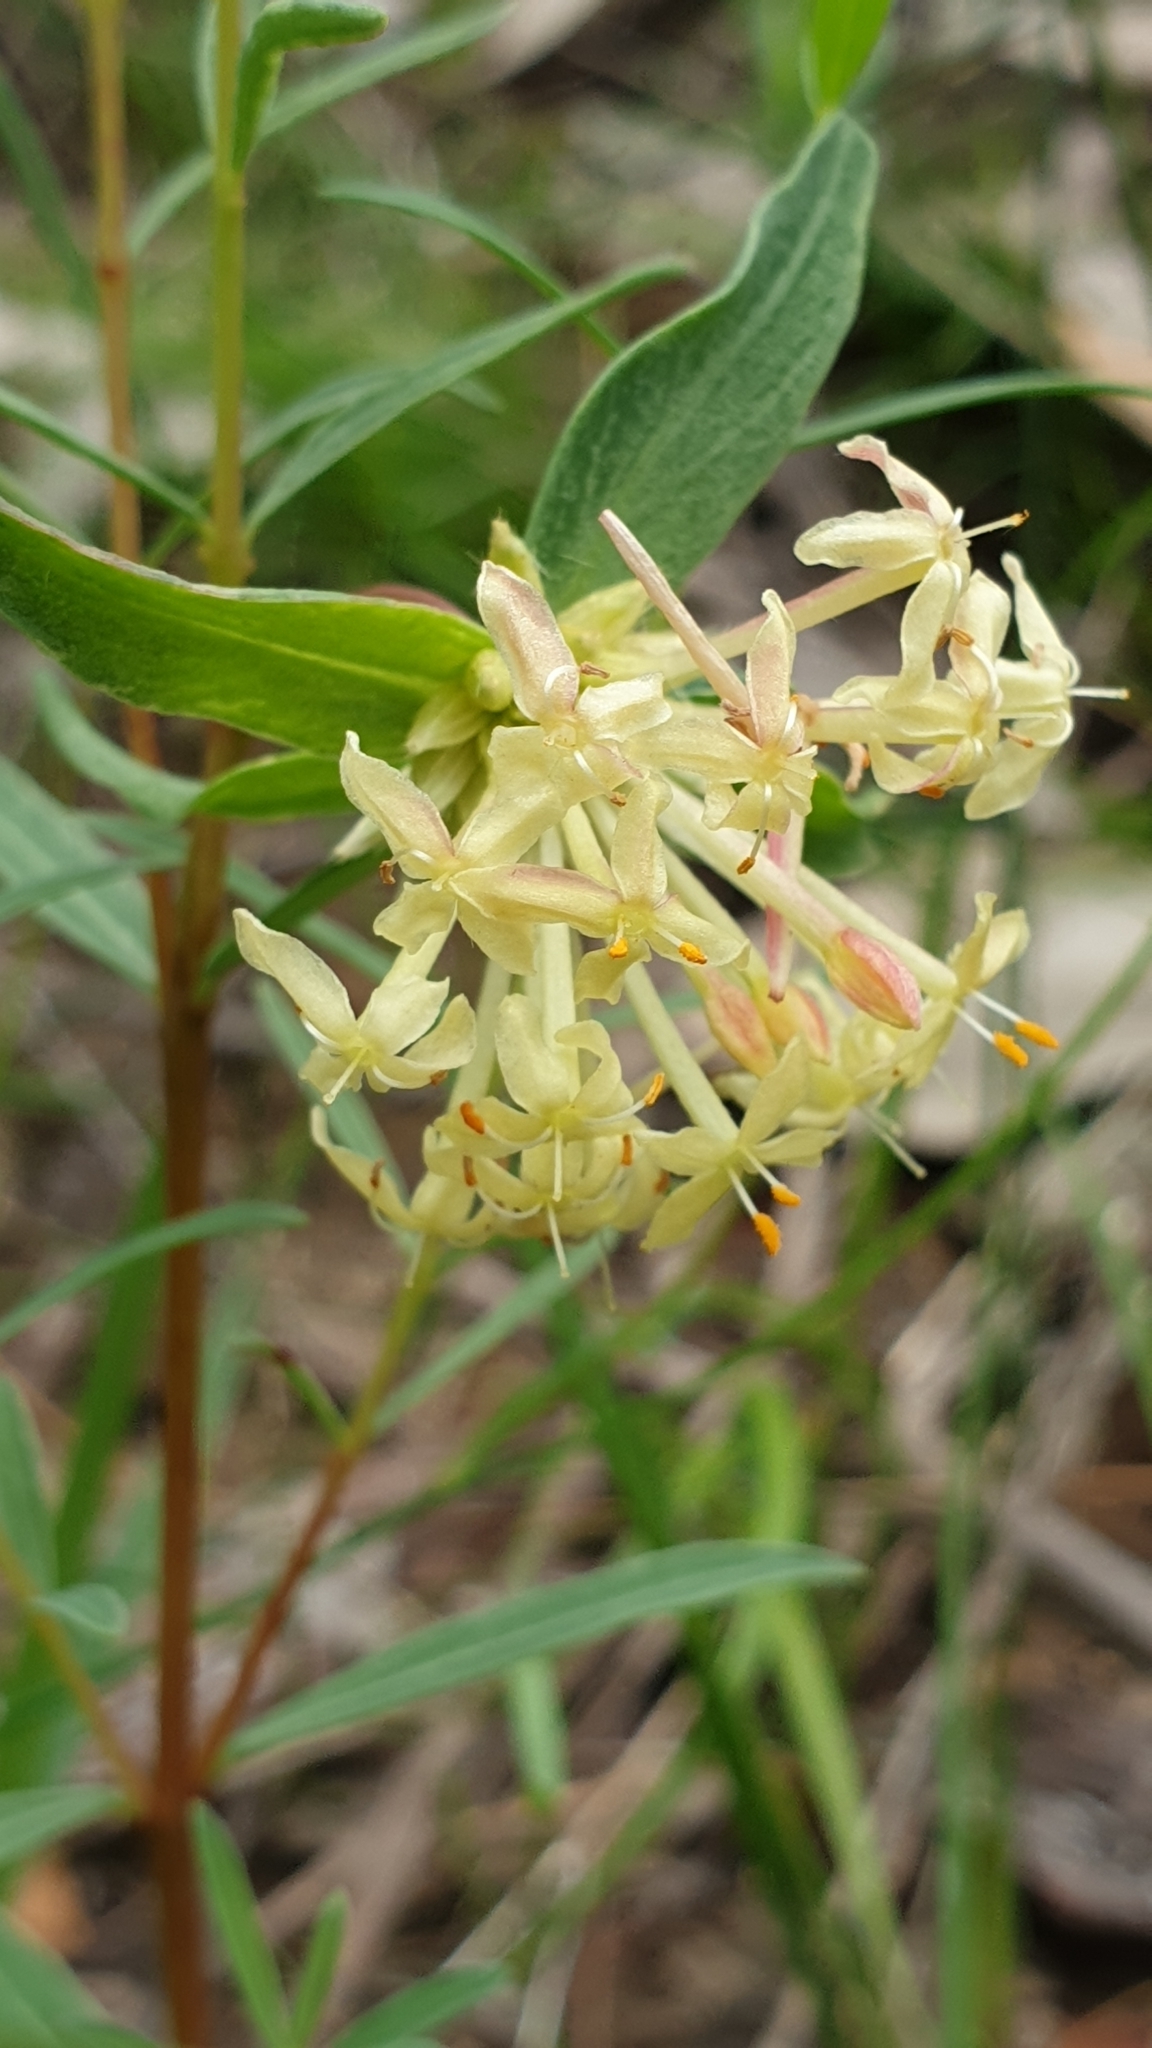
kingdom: Plantae
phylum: Tracheophyta
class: Magnoliopsida
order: Malvales
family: Thymelaeaceae
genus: Pimelea
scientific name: Pimelea linifolia
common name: Queen-of-the-bush
